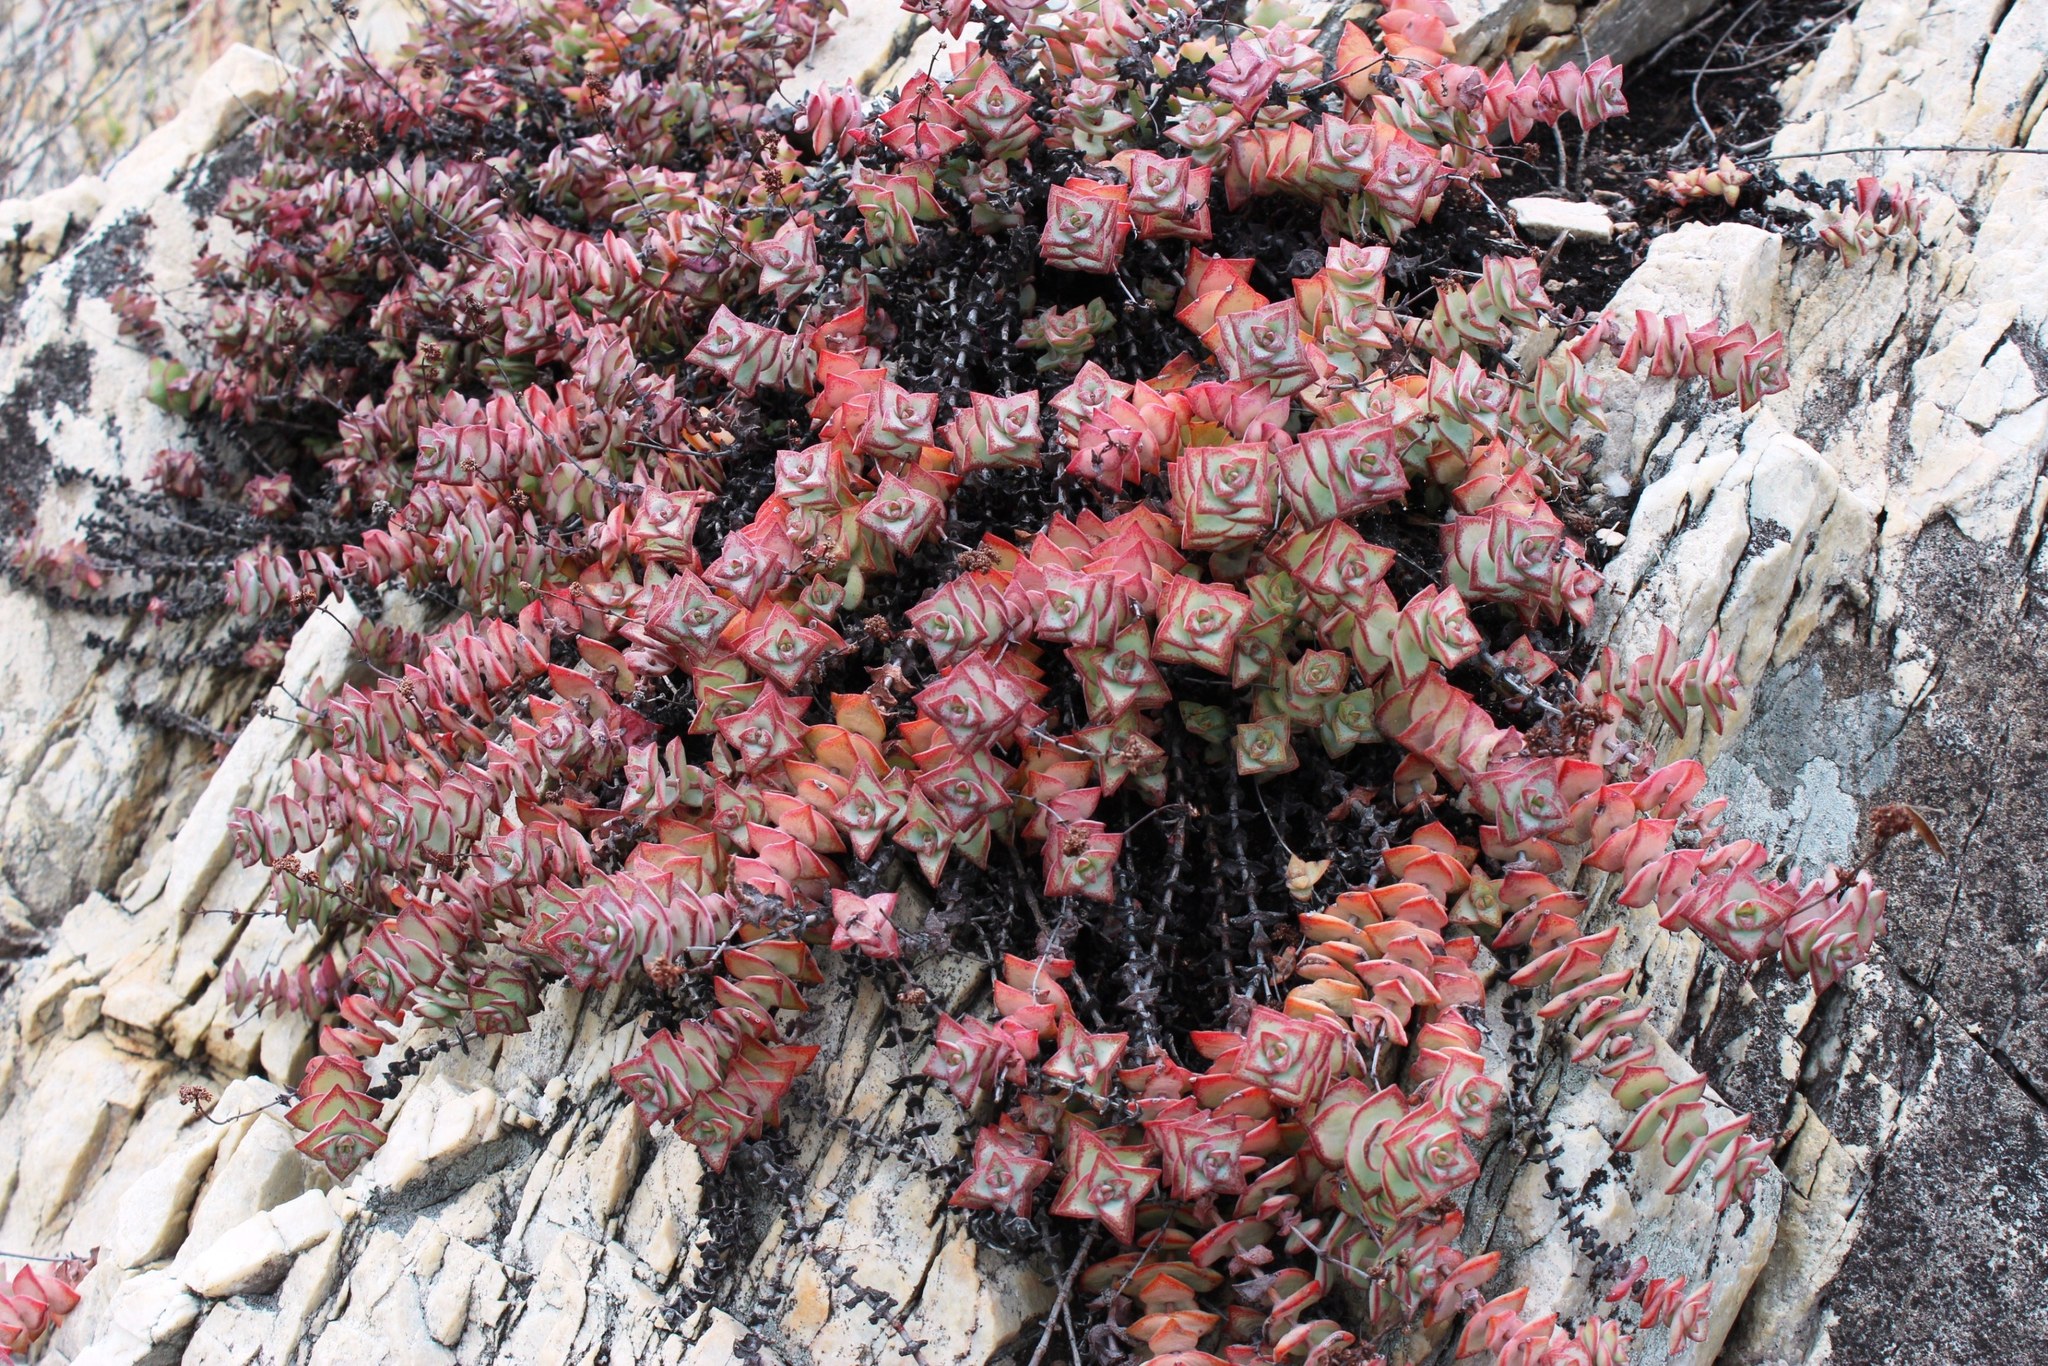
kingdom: Plantae
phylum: Tracheophyta
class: Magnoliopsida
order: Saxifragales
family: Crassulaceae
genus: Crassula
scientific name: Crassula perforata
